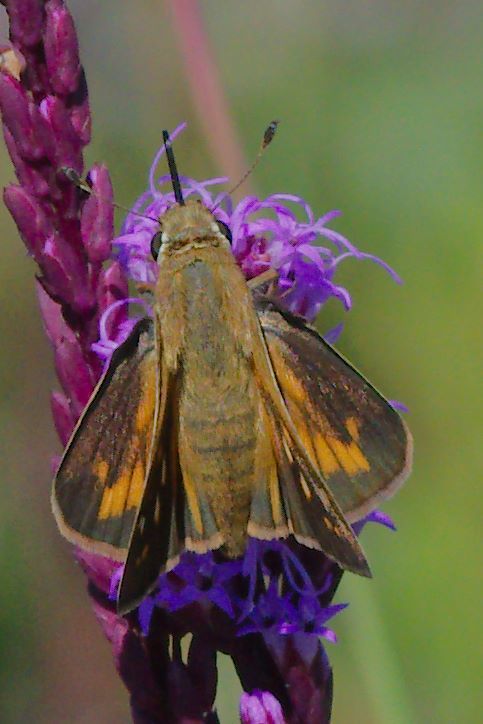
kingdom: Animalia
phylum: Arthropoda
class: Insecta
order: Lepidoptera
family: Hesperiidae
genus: Atalopedes
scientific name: Atalopedes
